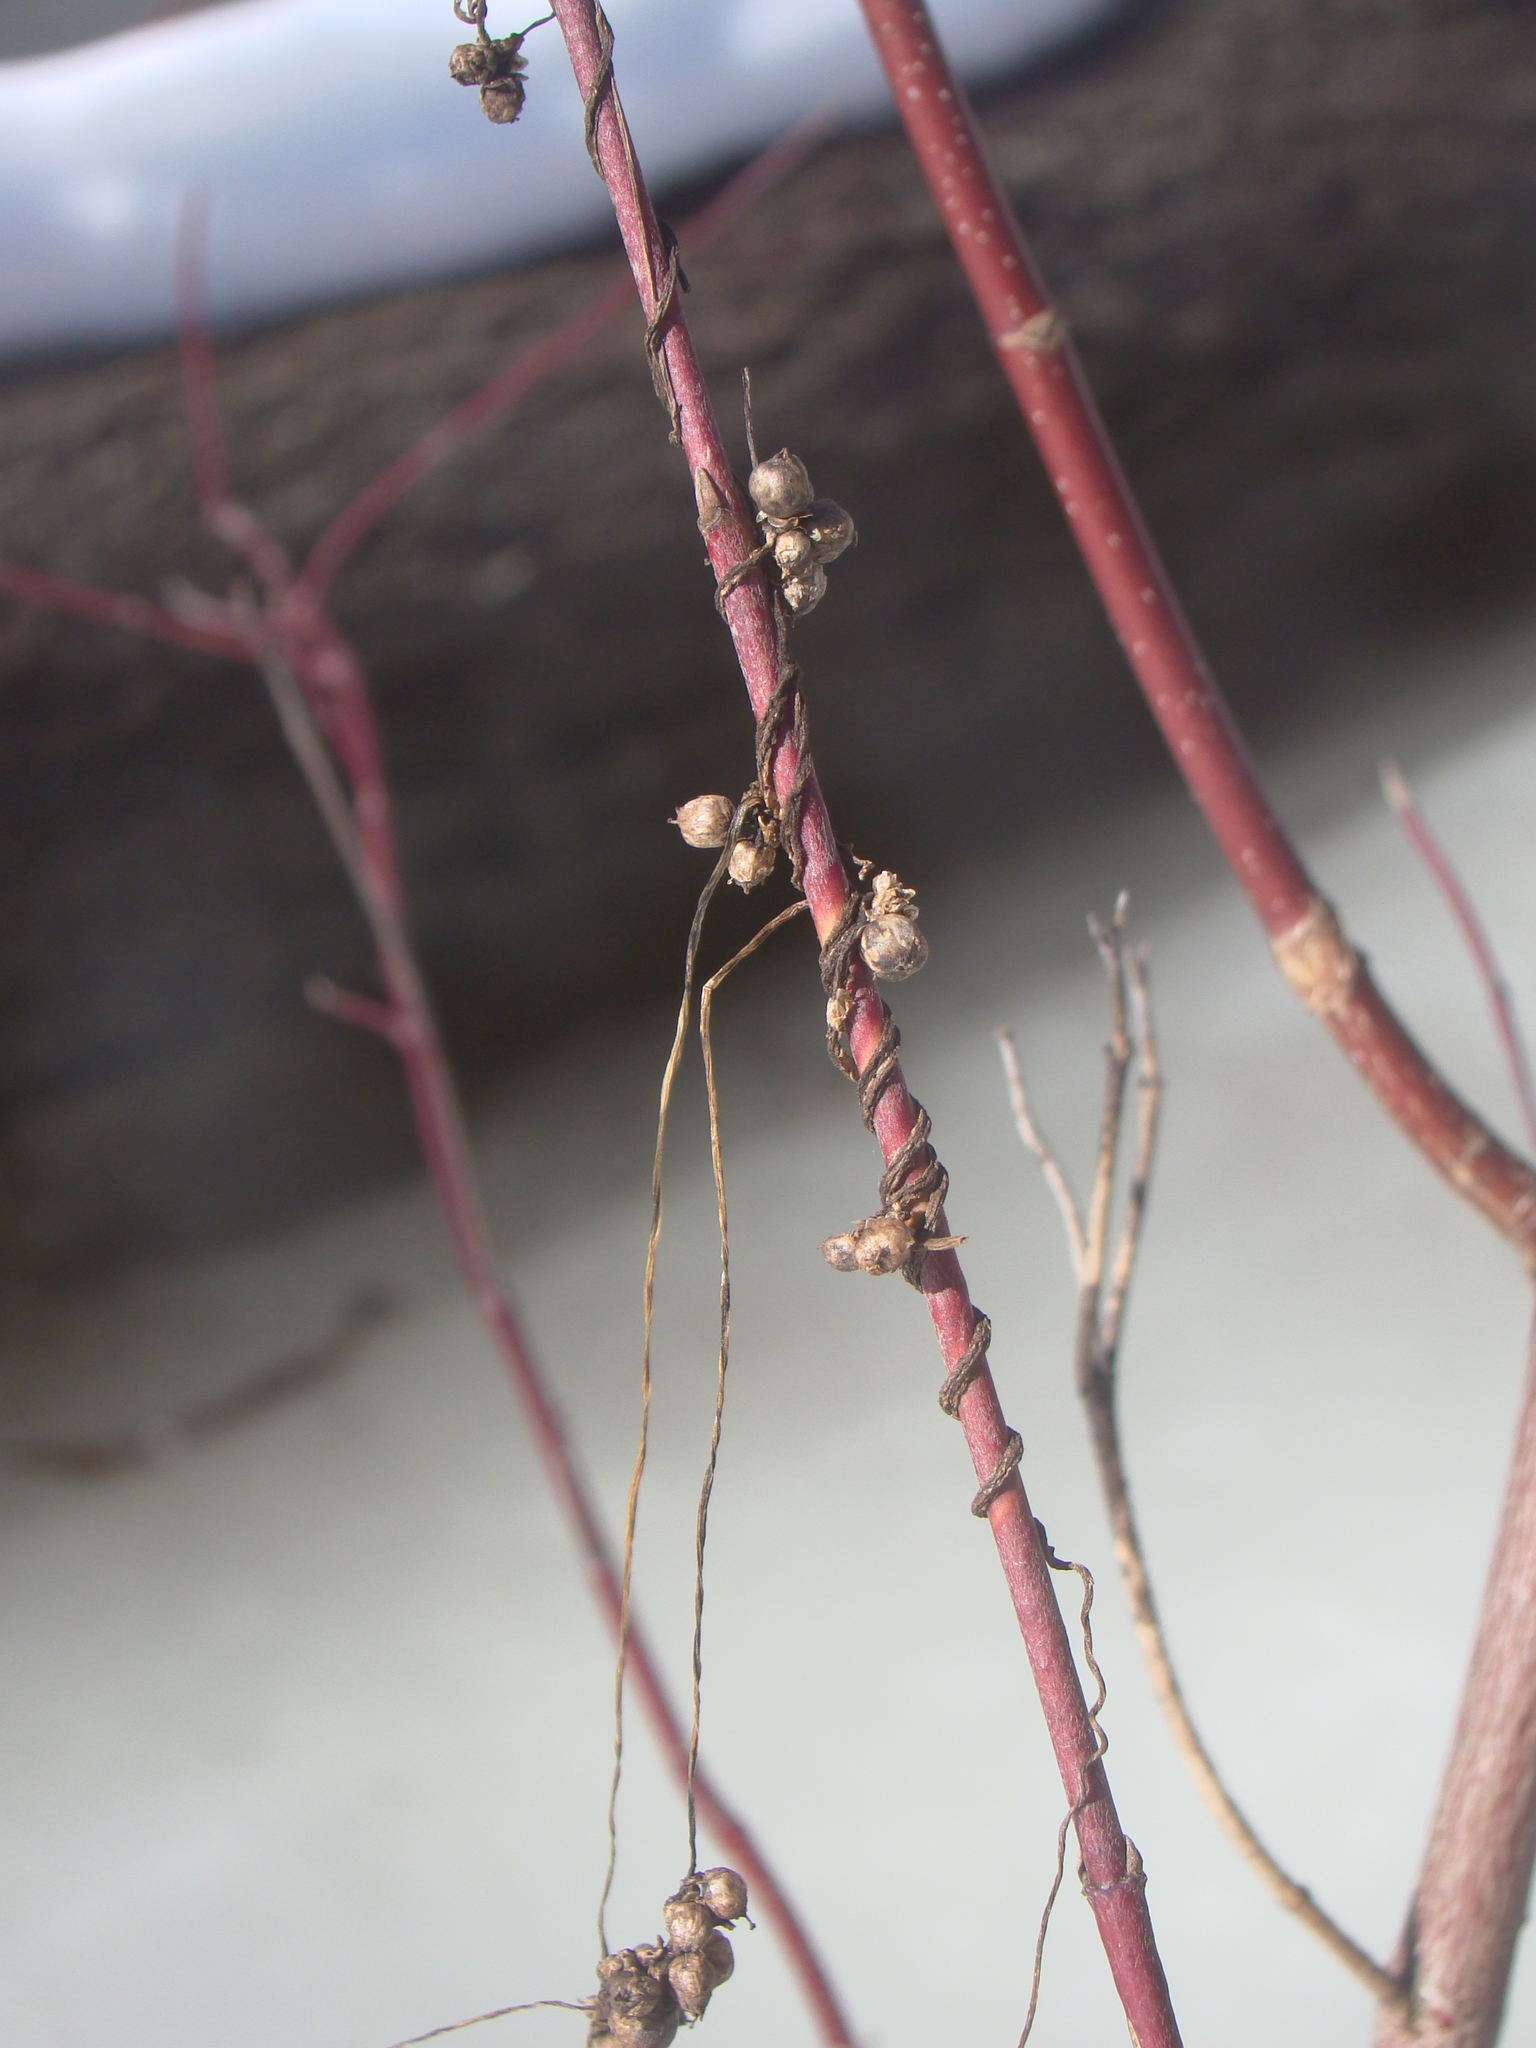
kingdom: Plantae
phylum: Tracheophyta
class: Magnoliopsida
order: Solanales
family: Convolvulaceae
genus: Cuscuta
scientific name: Cuscuta gronovii
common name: Common dodder
